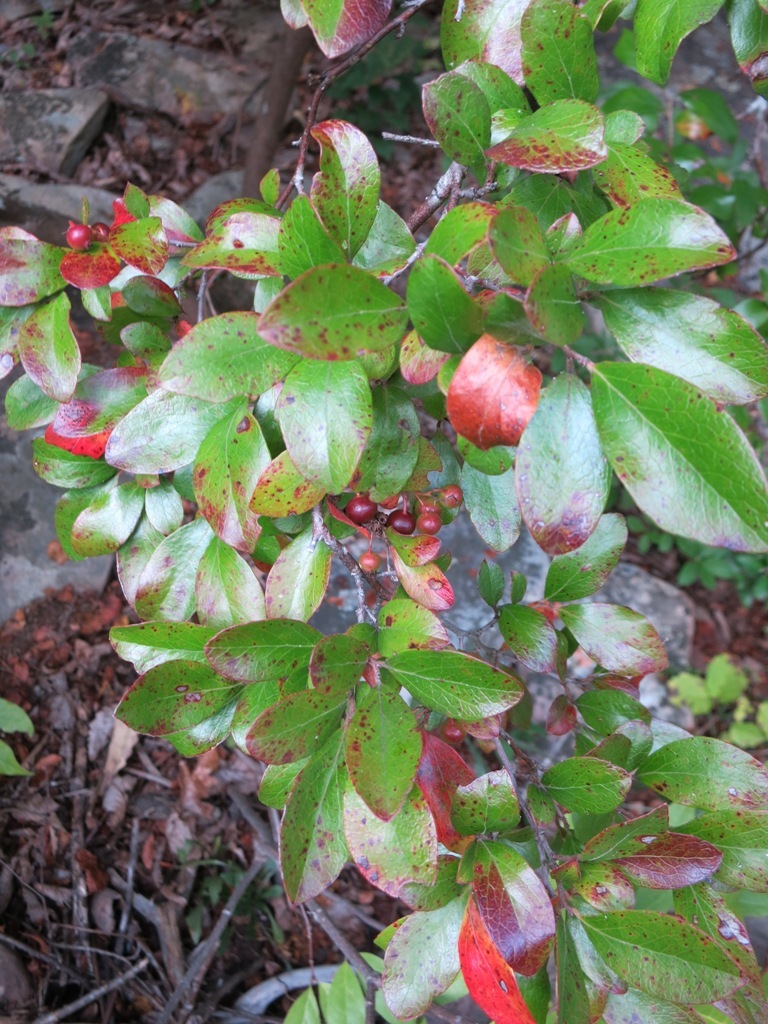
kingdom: Plantae
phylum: Tracheophyta
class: Magnoliopsida
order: Ericales
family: Ericaceae
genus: Vaccinium
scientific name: Vaccinium arboreum
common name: Farkleberry
